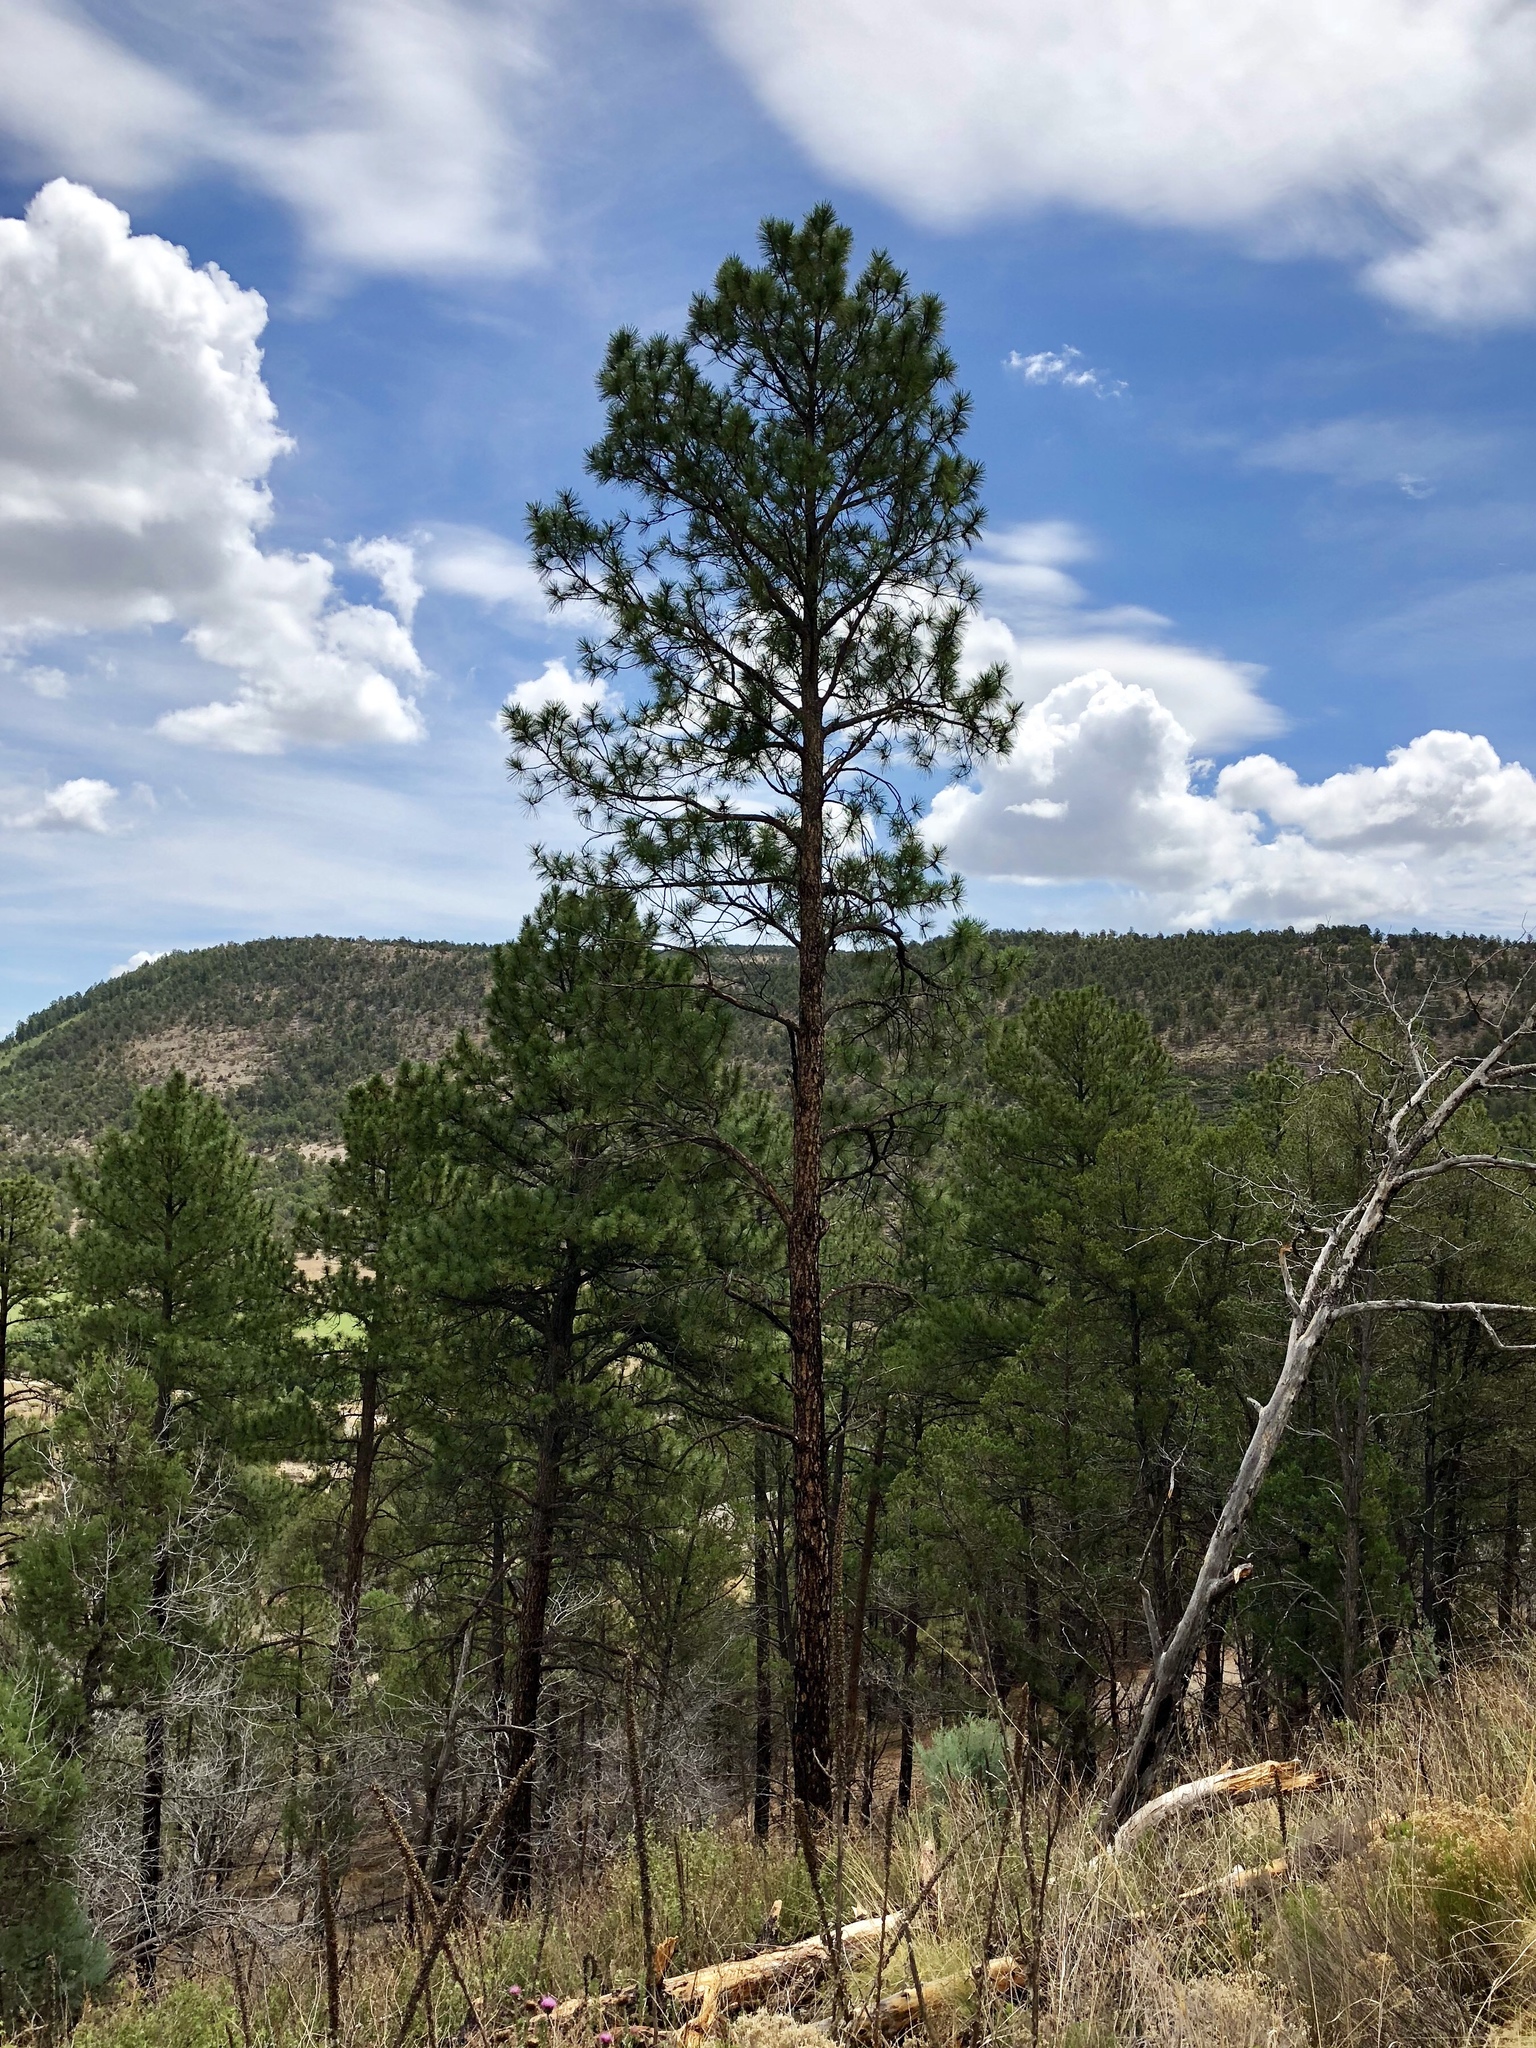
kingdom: Plantae
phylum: Tracheophyta
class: Pinopsida
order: Pinales
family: Pinaceae
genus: Pinus
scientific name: Pinus ponderosa
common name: Western yellow-pine
